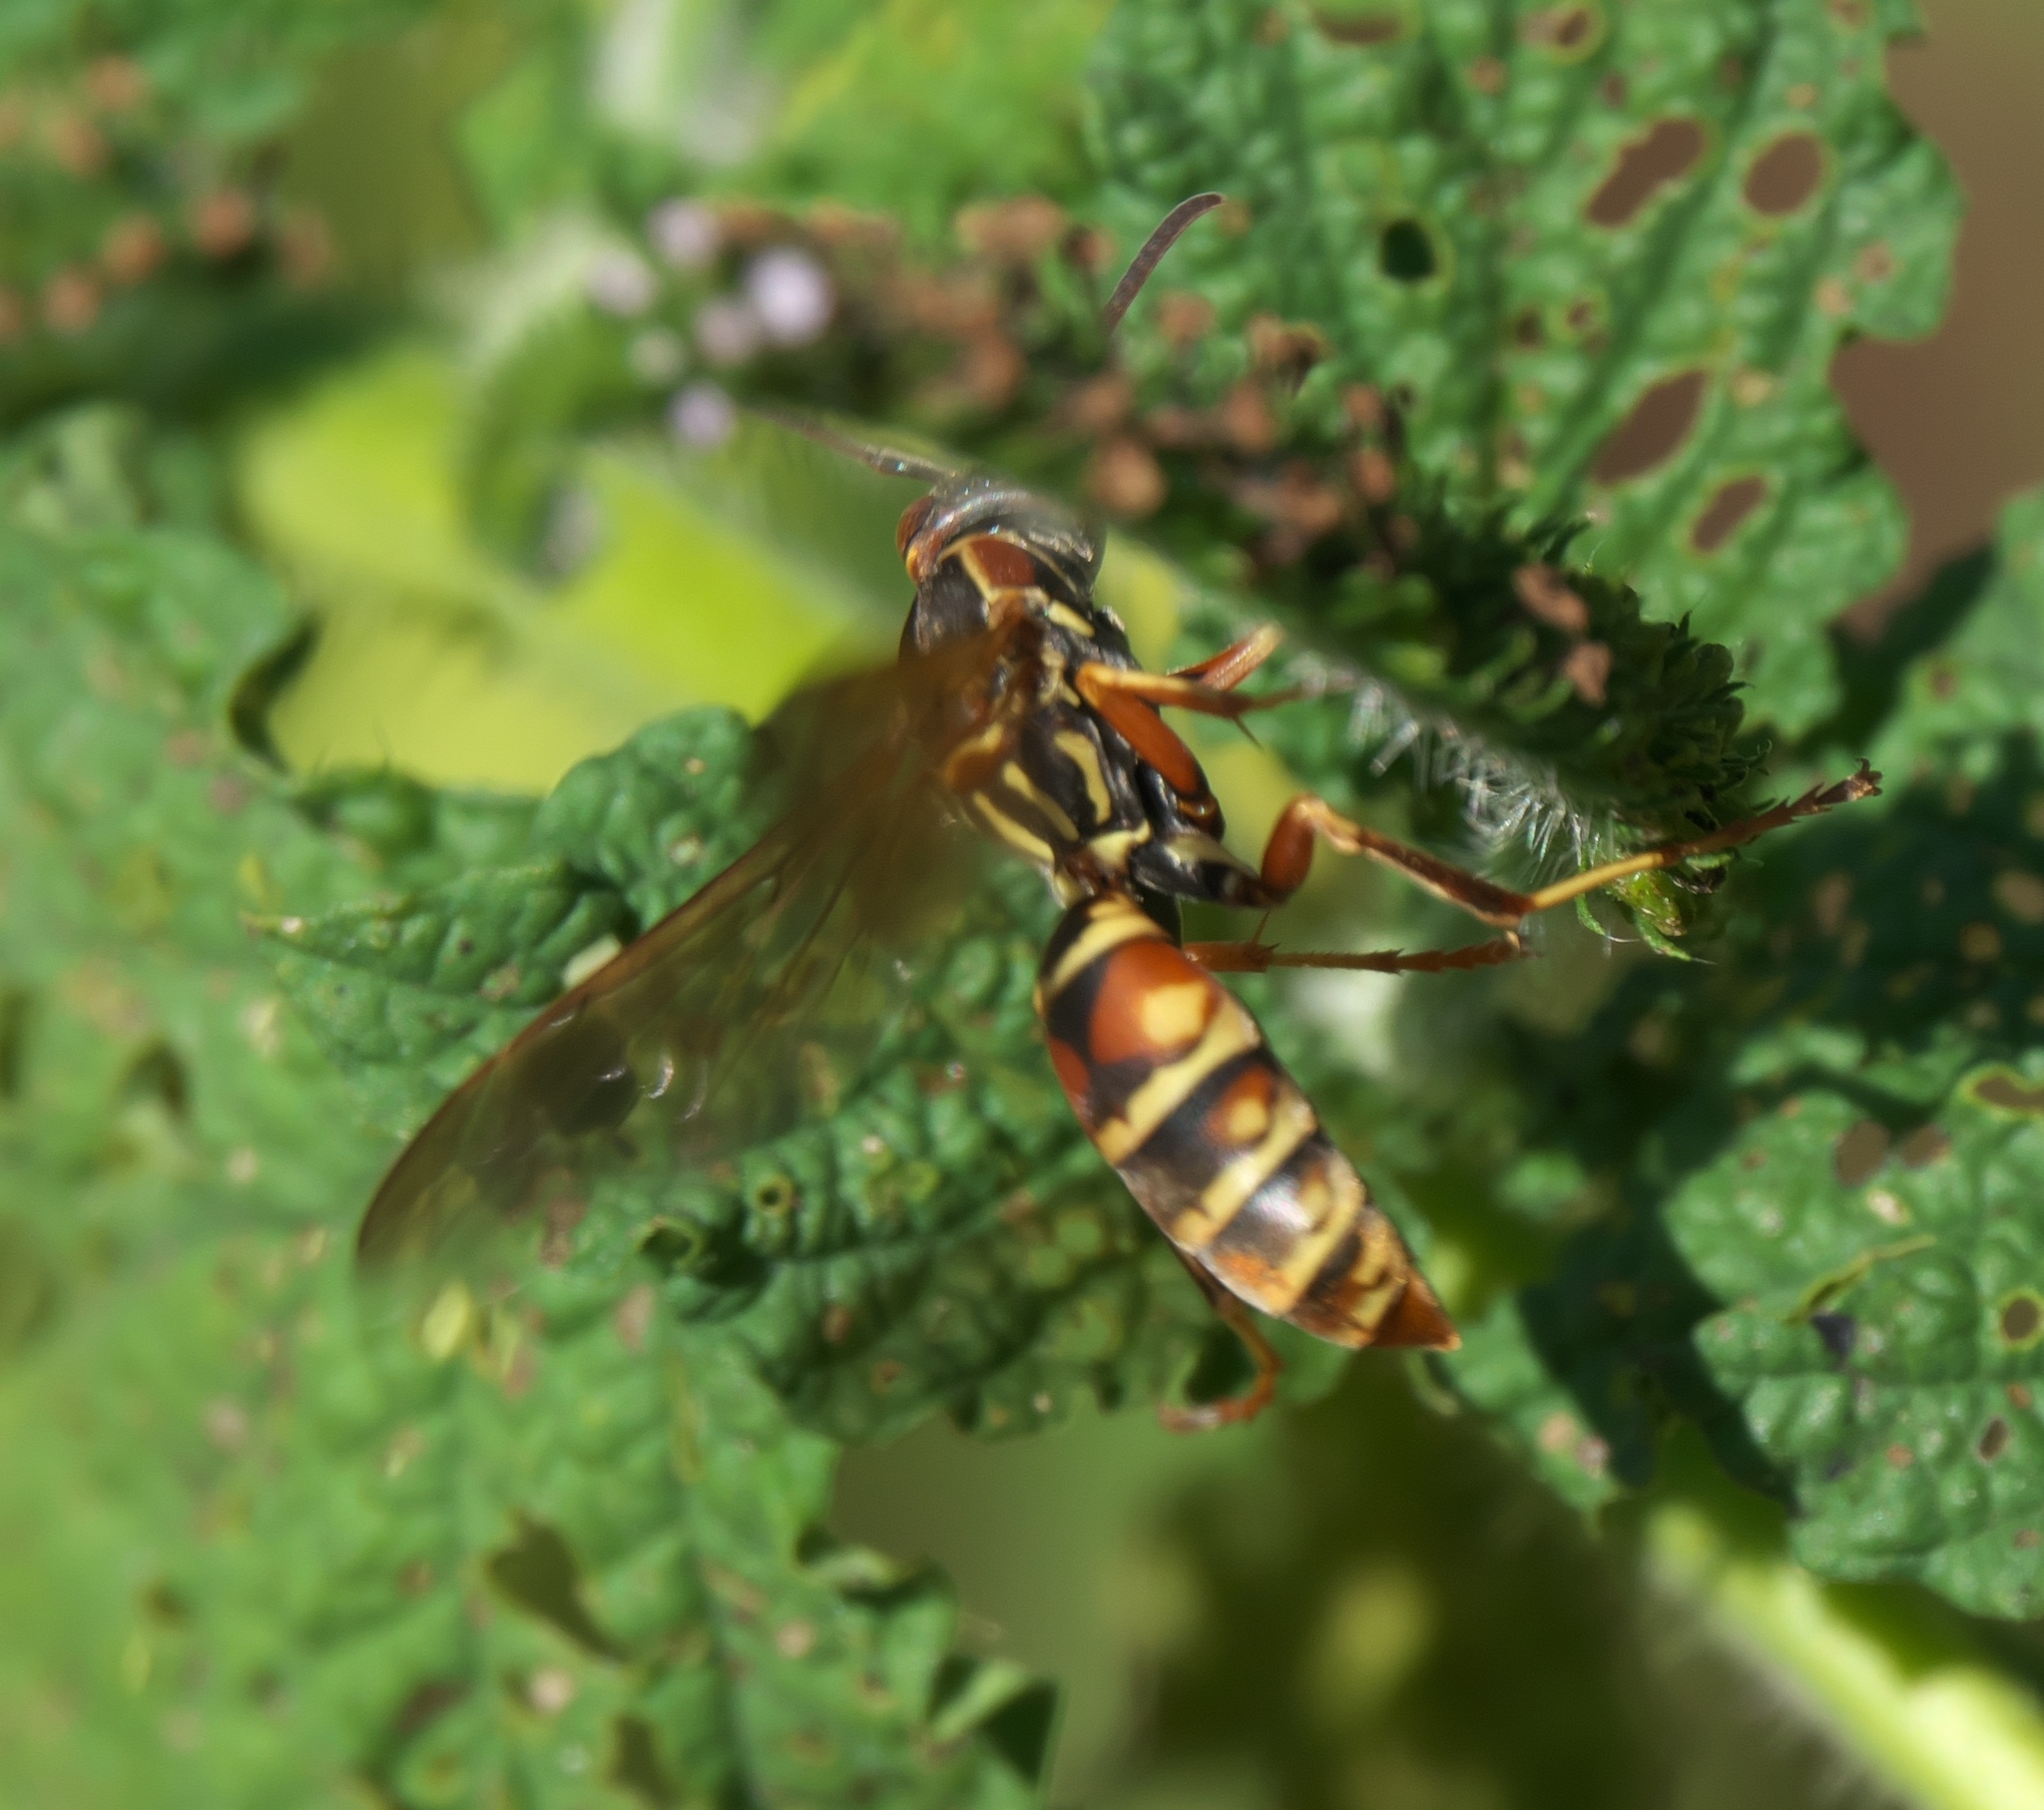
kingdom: Animalia
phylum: Arthropoda
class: Insecta
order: Hymenoptera
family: Eumenidae
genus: Polistes
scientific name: Polistes fuscatus
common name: Dark paper wasp
